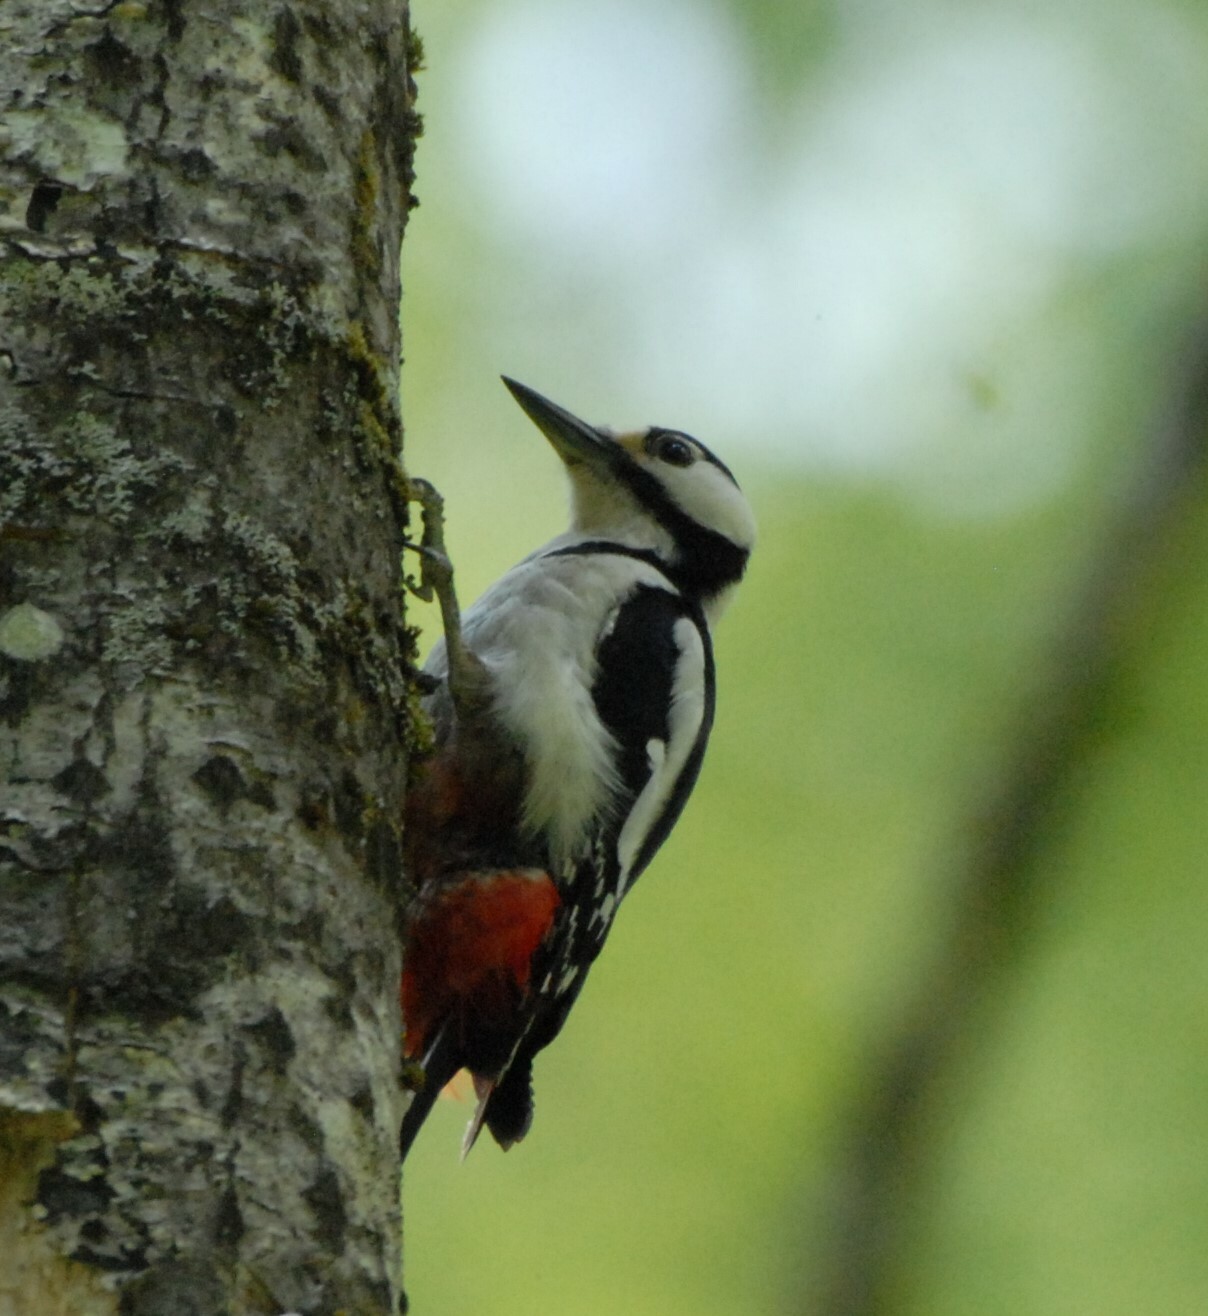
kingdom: Animalia
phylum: Chordata
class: Aves
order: Piciformes
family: Picidae
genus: Dendrocopos
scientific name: Dendrocopos major
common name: Great spotted woodpecker
